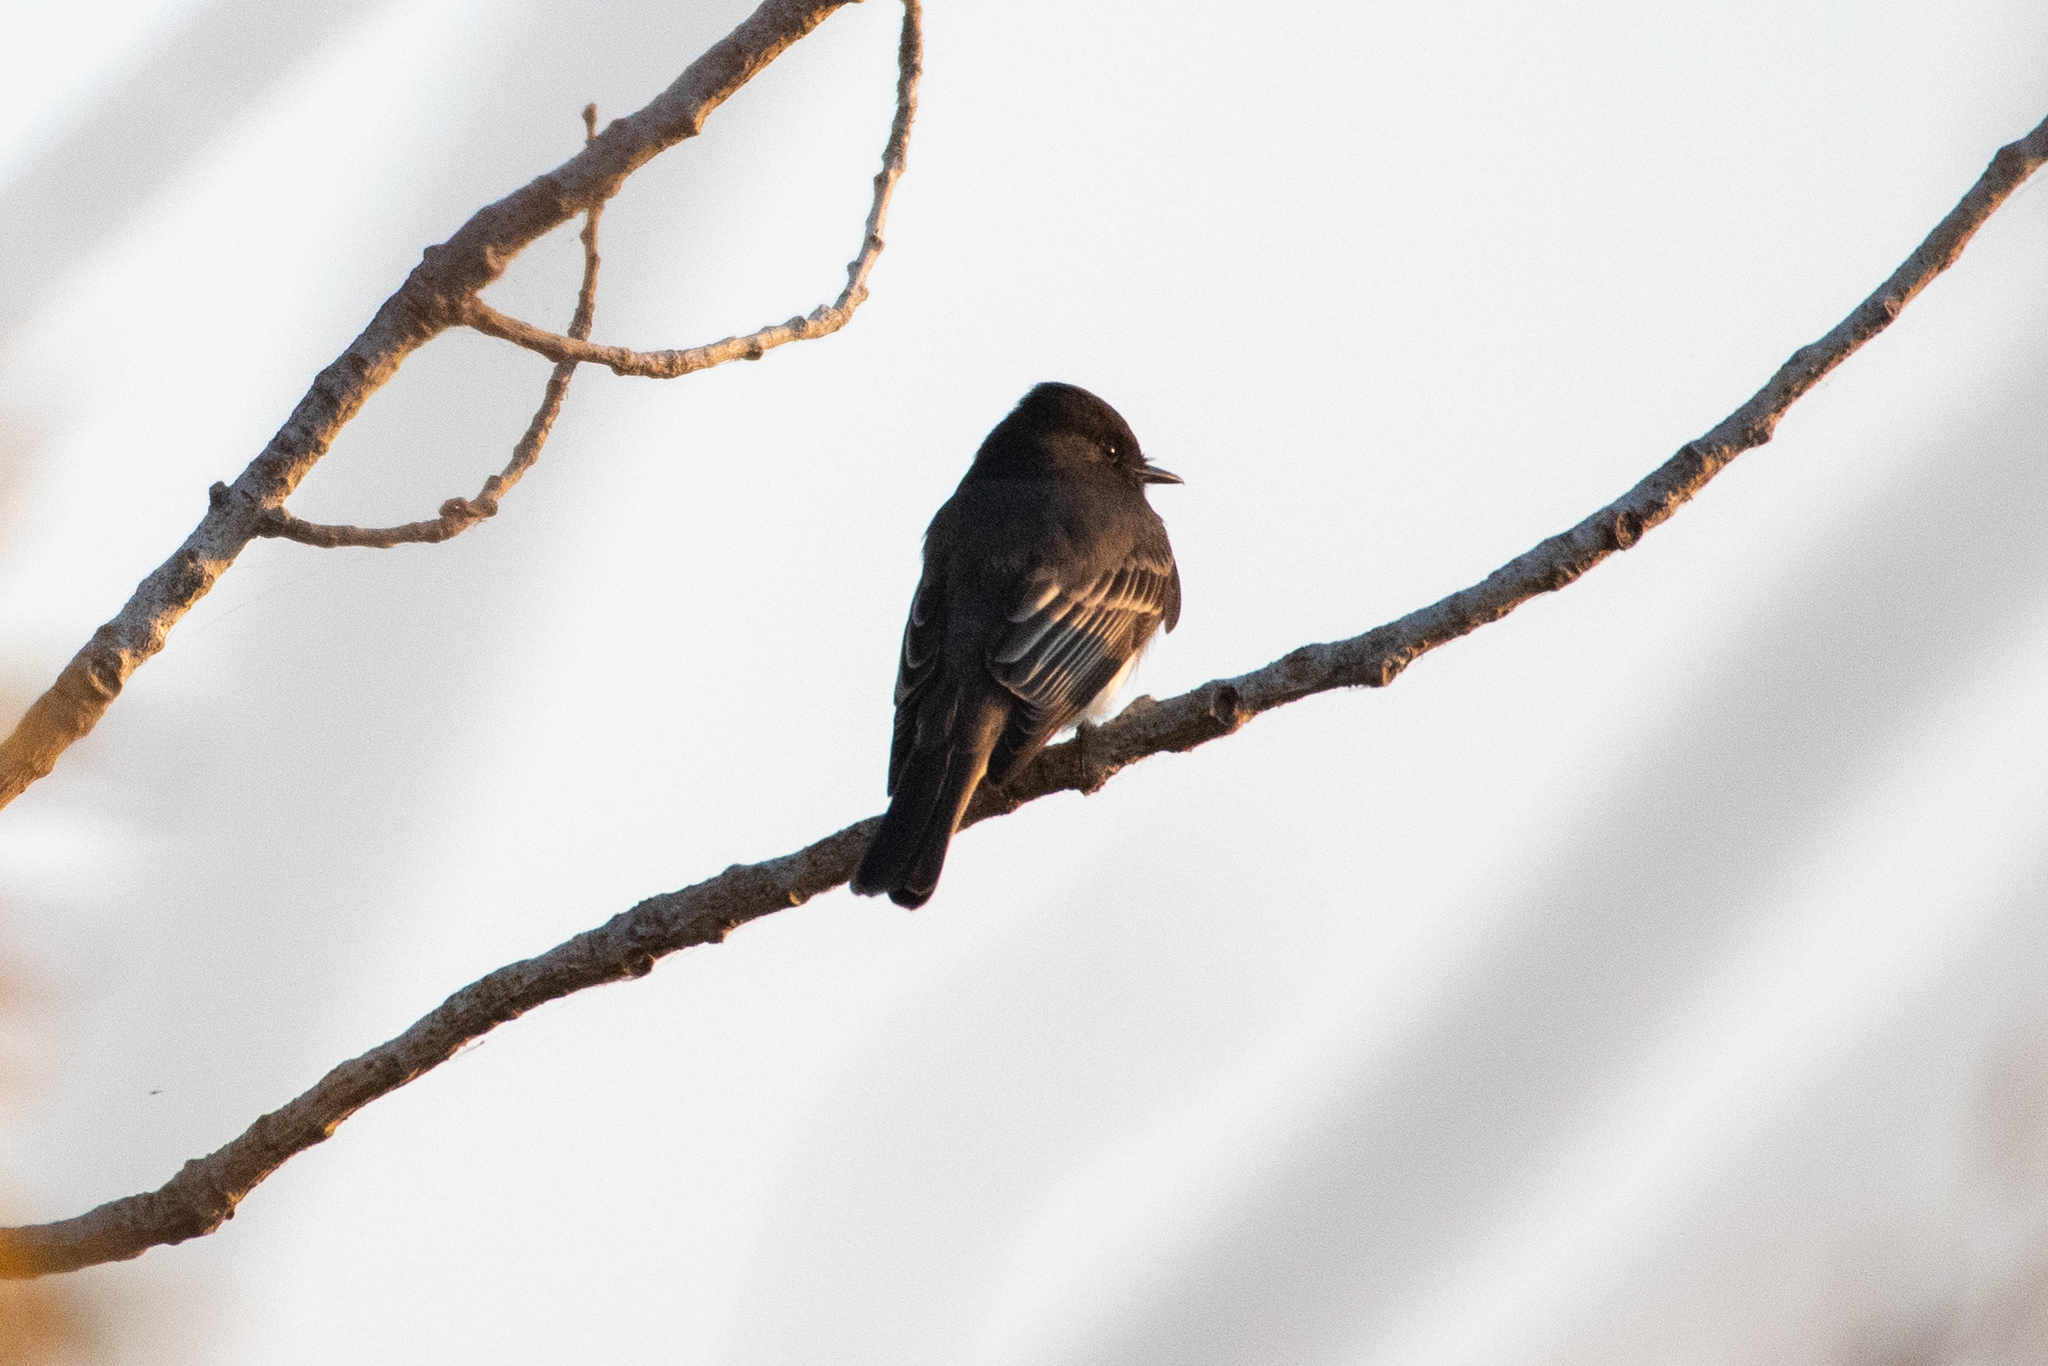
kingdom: Animalia
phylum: Chordata
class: Aves
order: Passeriformes
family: Tyrannidae
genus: Sayornis
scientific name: Sayornis nigricans
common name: Black phoebe
